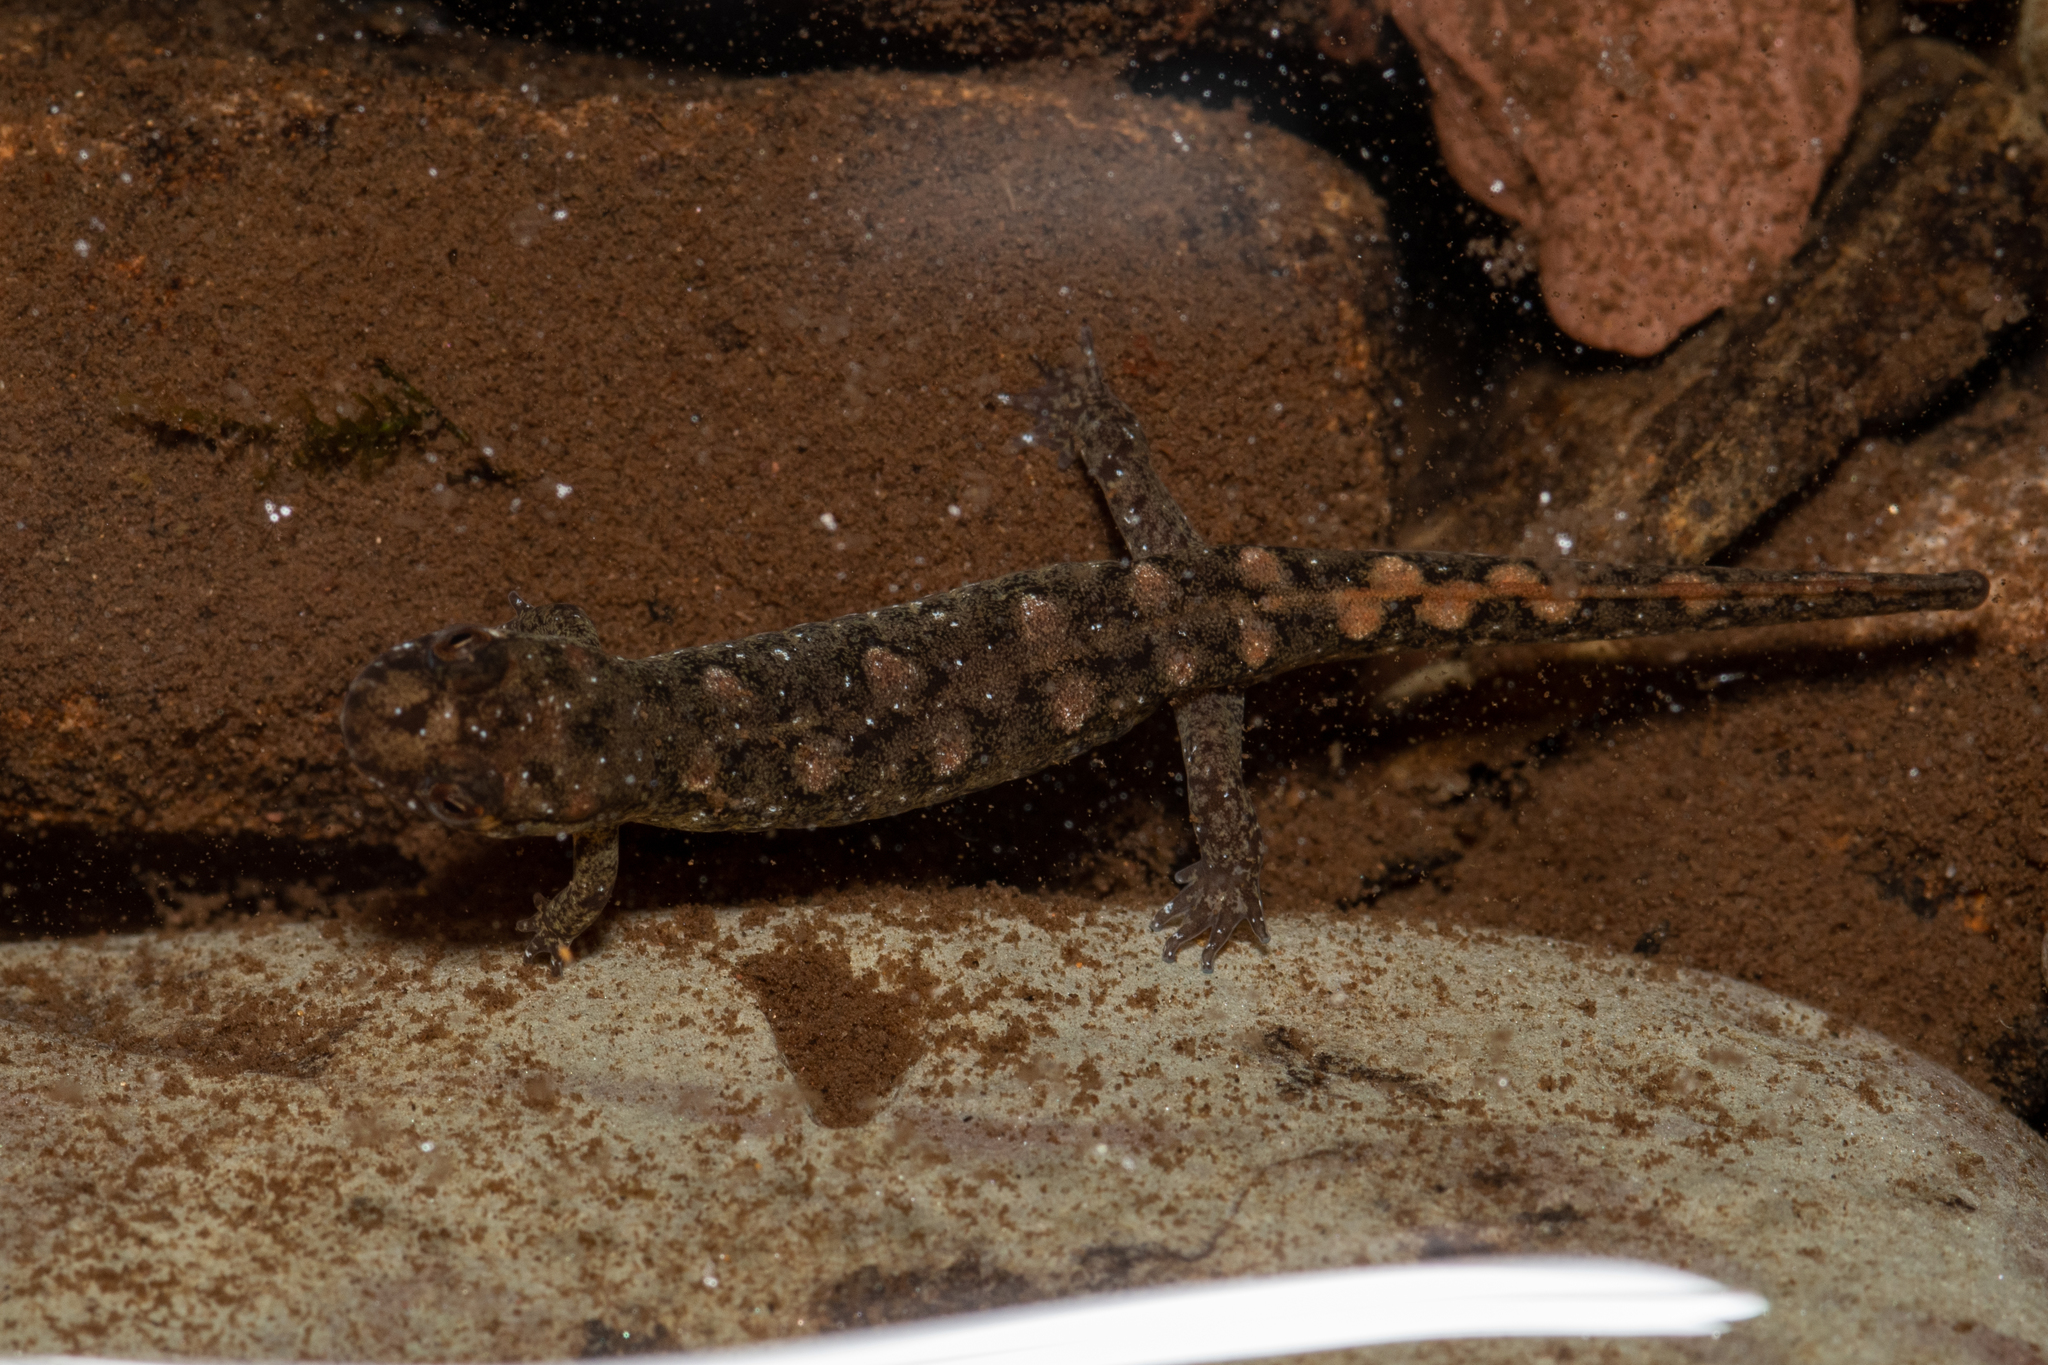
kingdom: Animalia
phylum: Chordata
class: Amphibia
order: Caudata
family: Plethodontidae
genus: Desmognathus
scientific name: Desmognathus monticola
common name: Seal salamander
